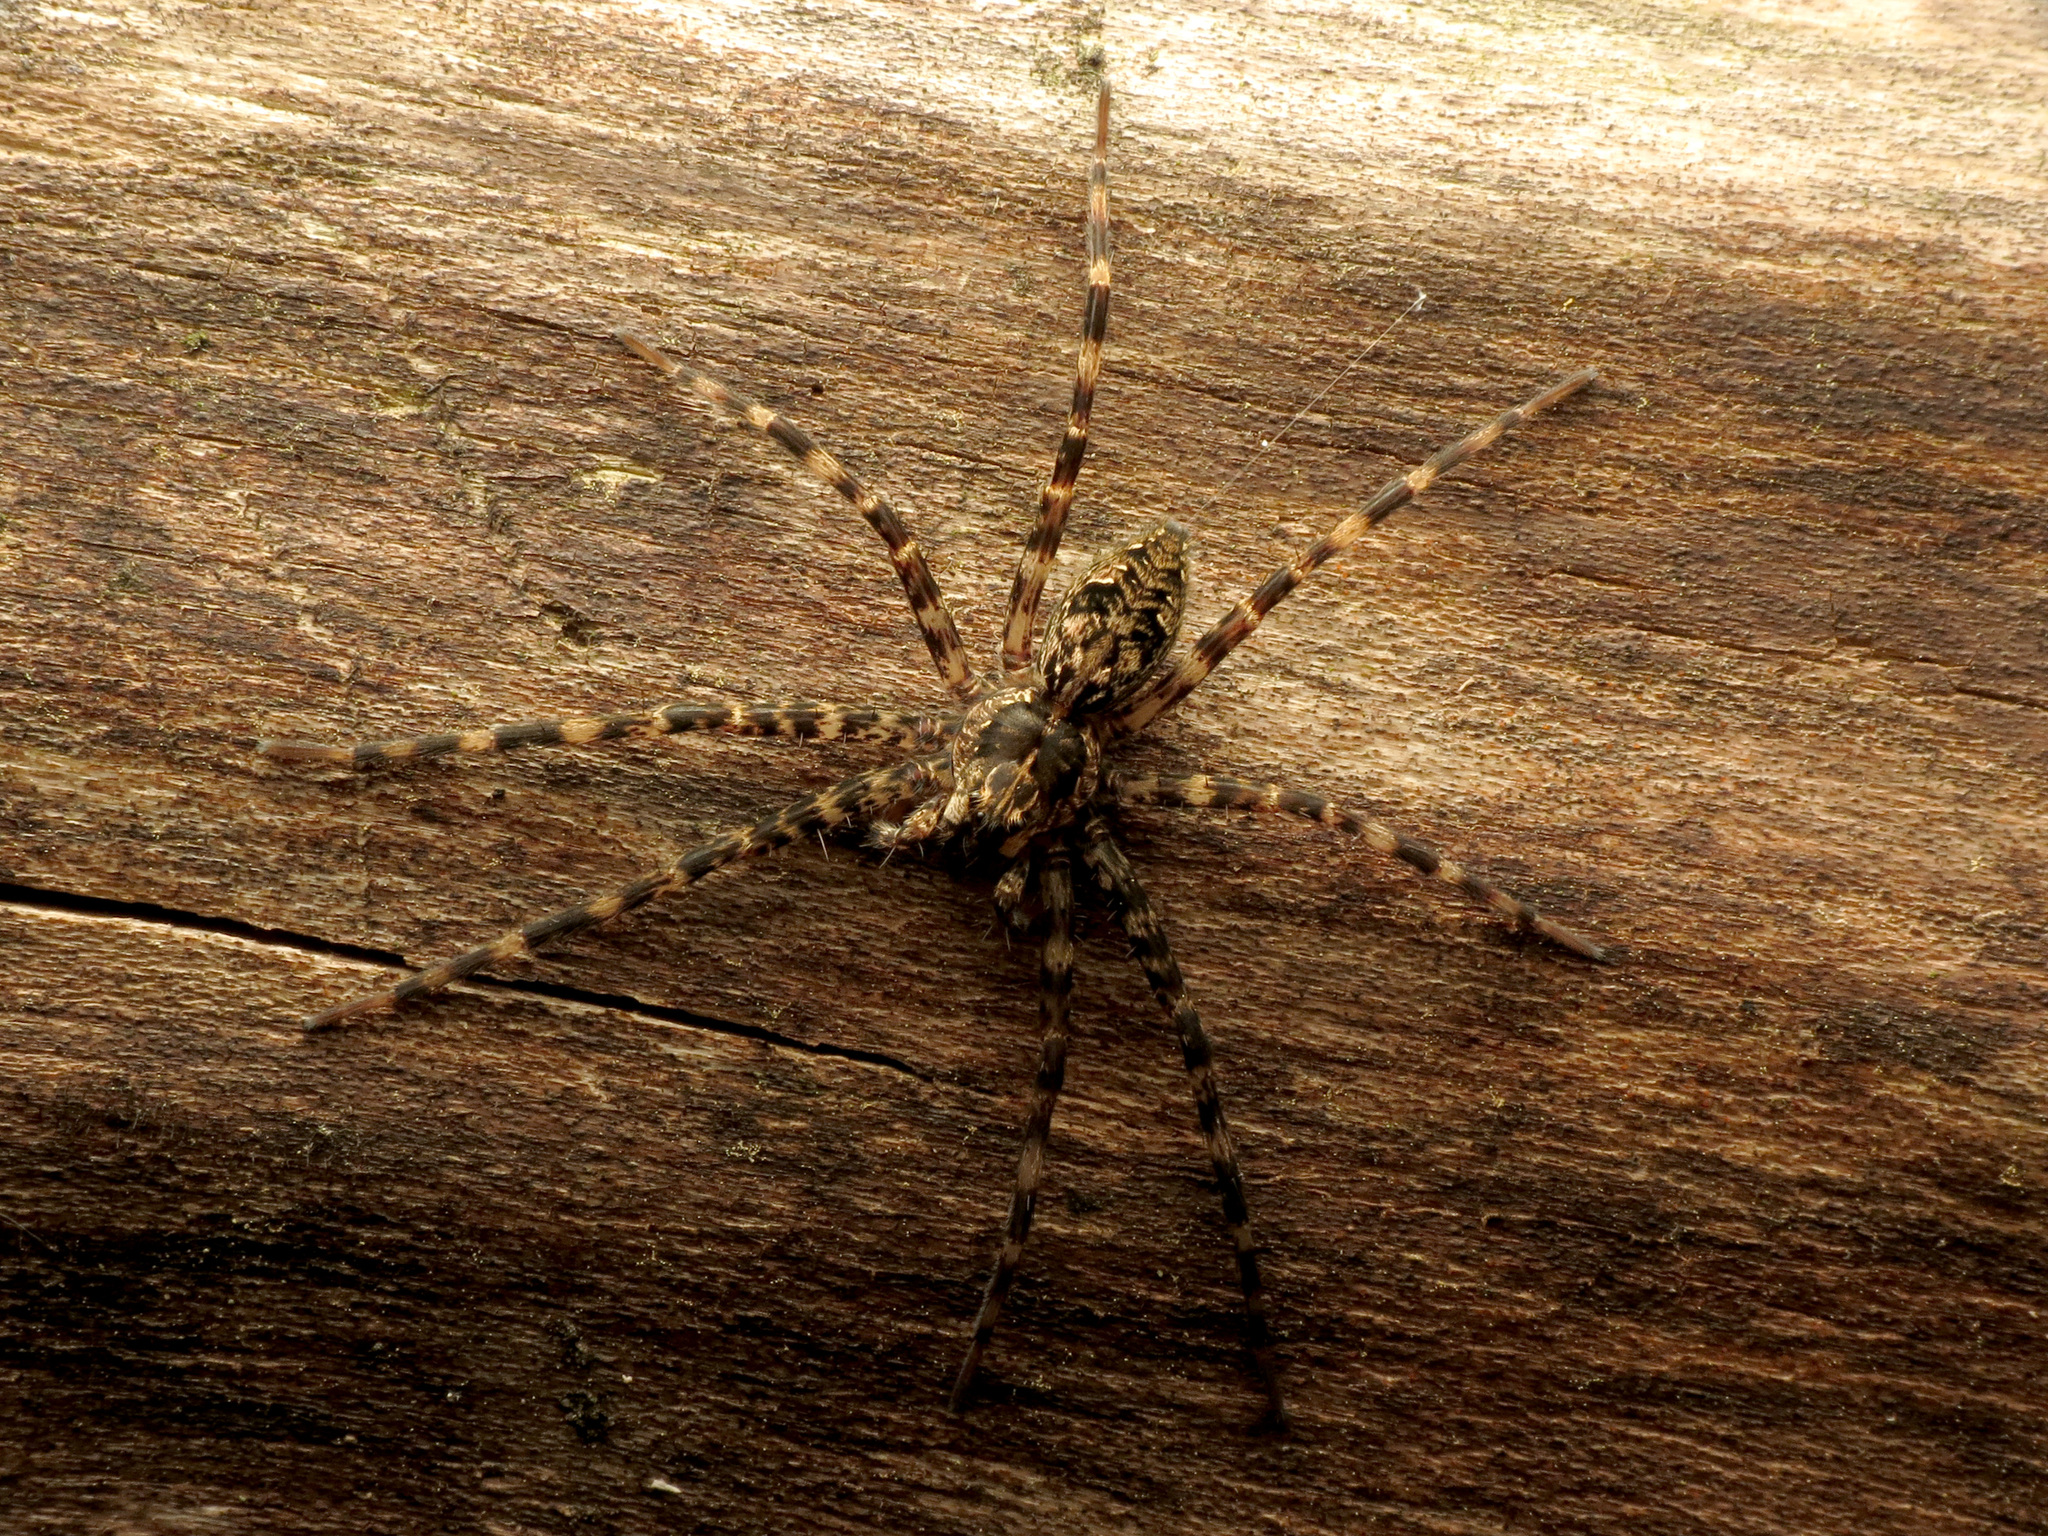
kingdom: Animalia
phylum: Arthropoda
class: Arachnida
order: Araneae
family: Pisauridae
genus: Dolomedes
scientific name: Dolomedes tenebrosus
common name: Dark fishing spider
